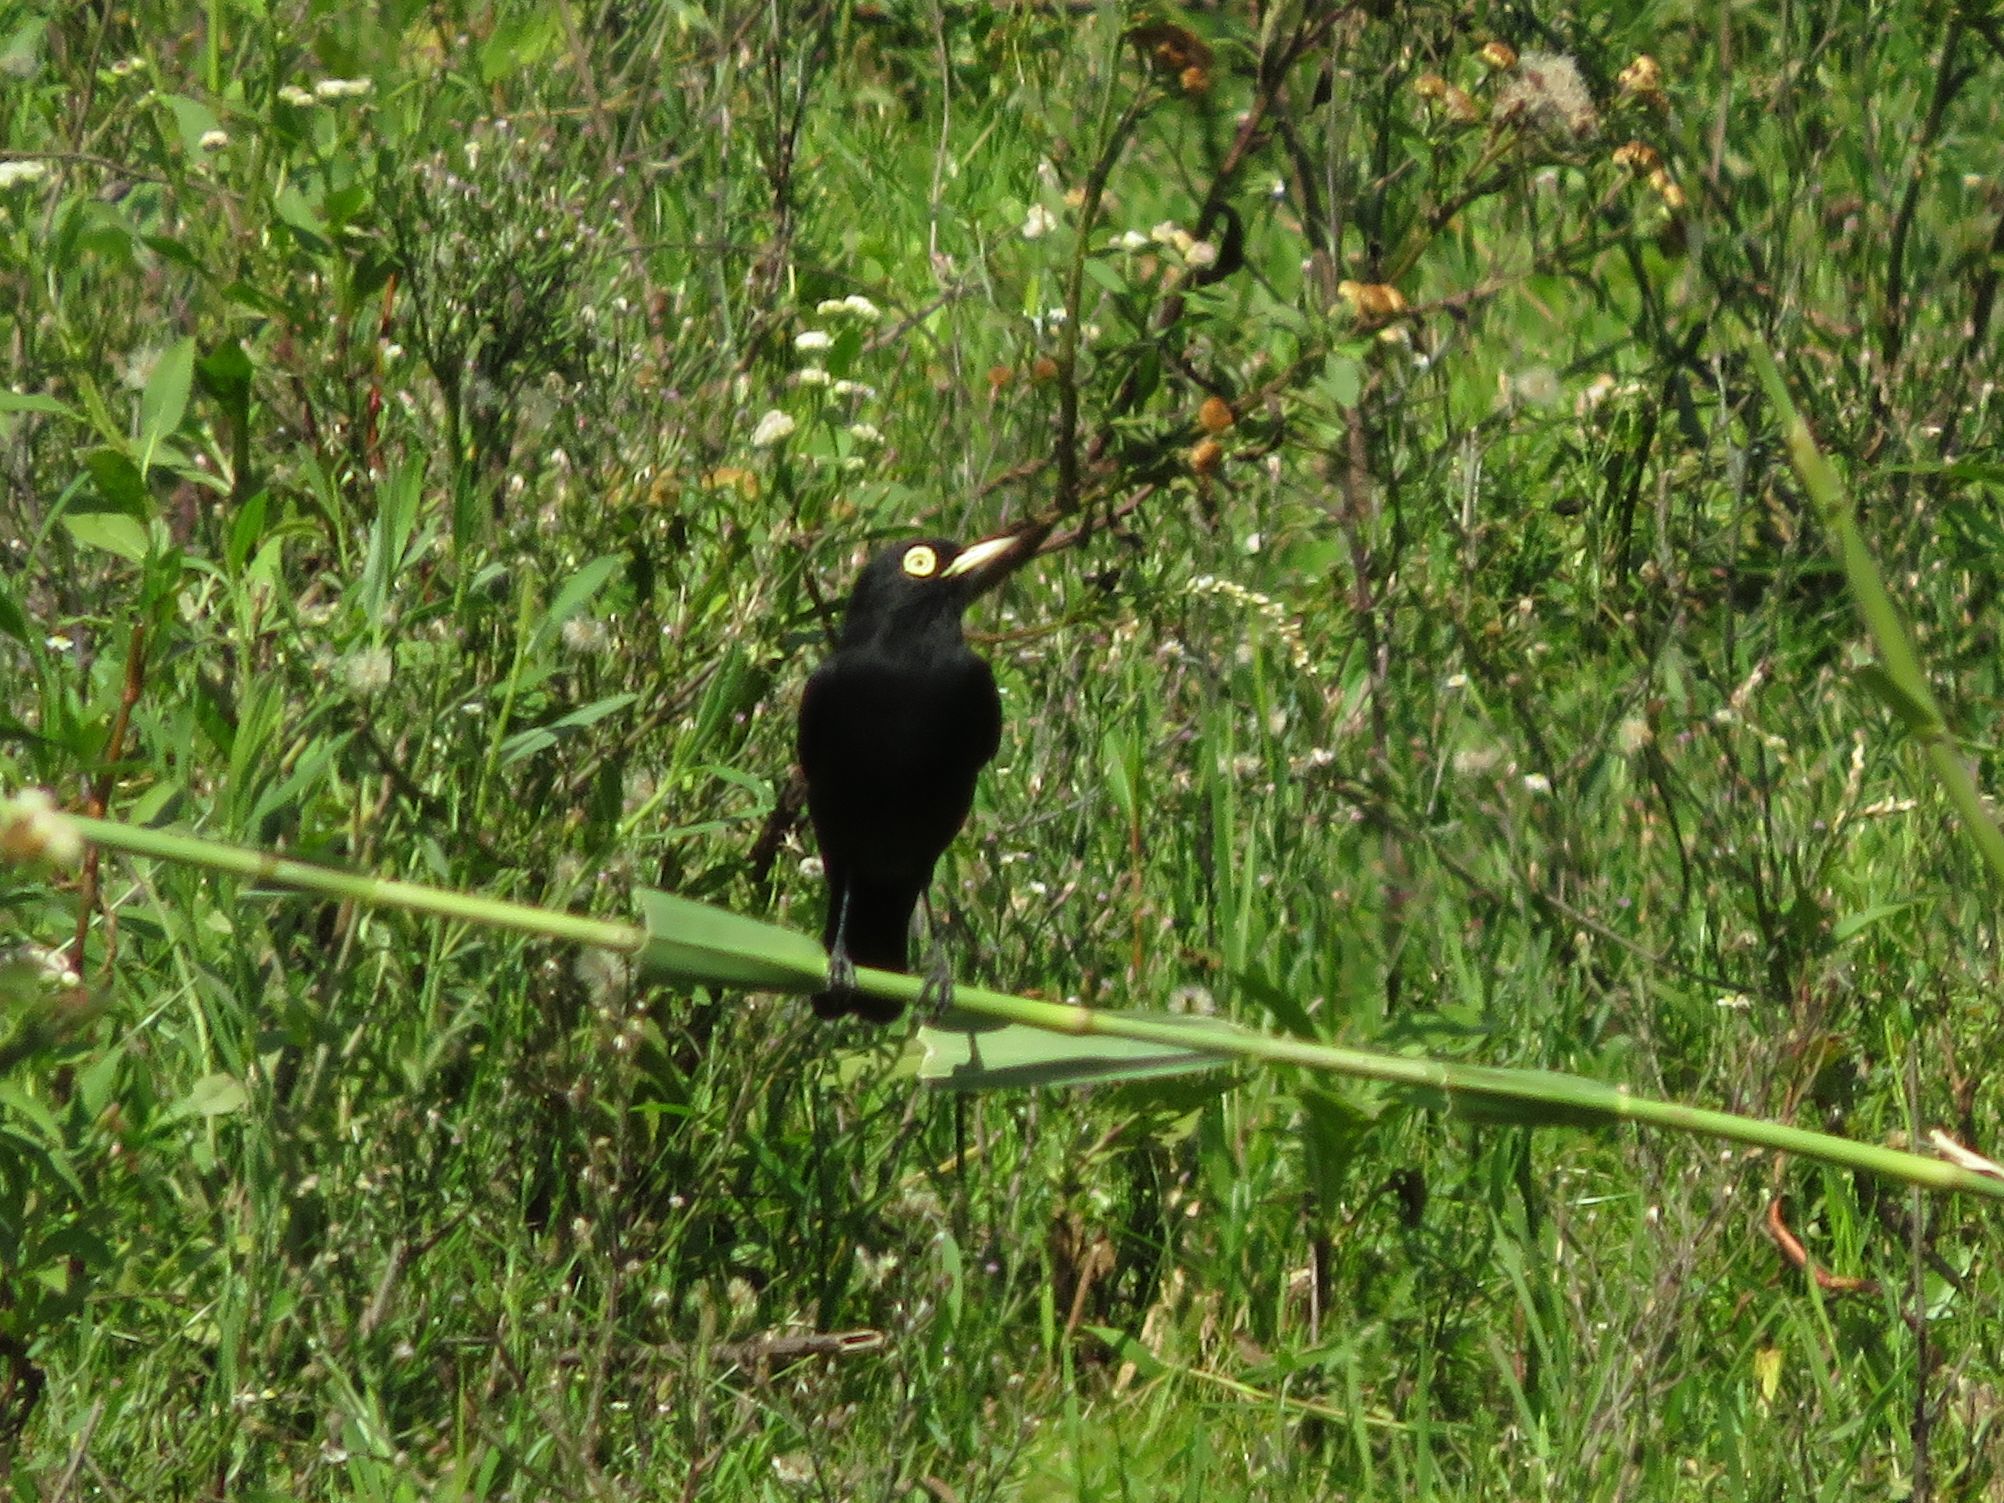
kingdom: Animalia
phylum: Chordata
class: Aves
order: Passeriformes
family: Tyrannidae
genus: Hymenops
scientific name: Hymenops perspicillatus
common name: Spectacled tyrant
